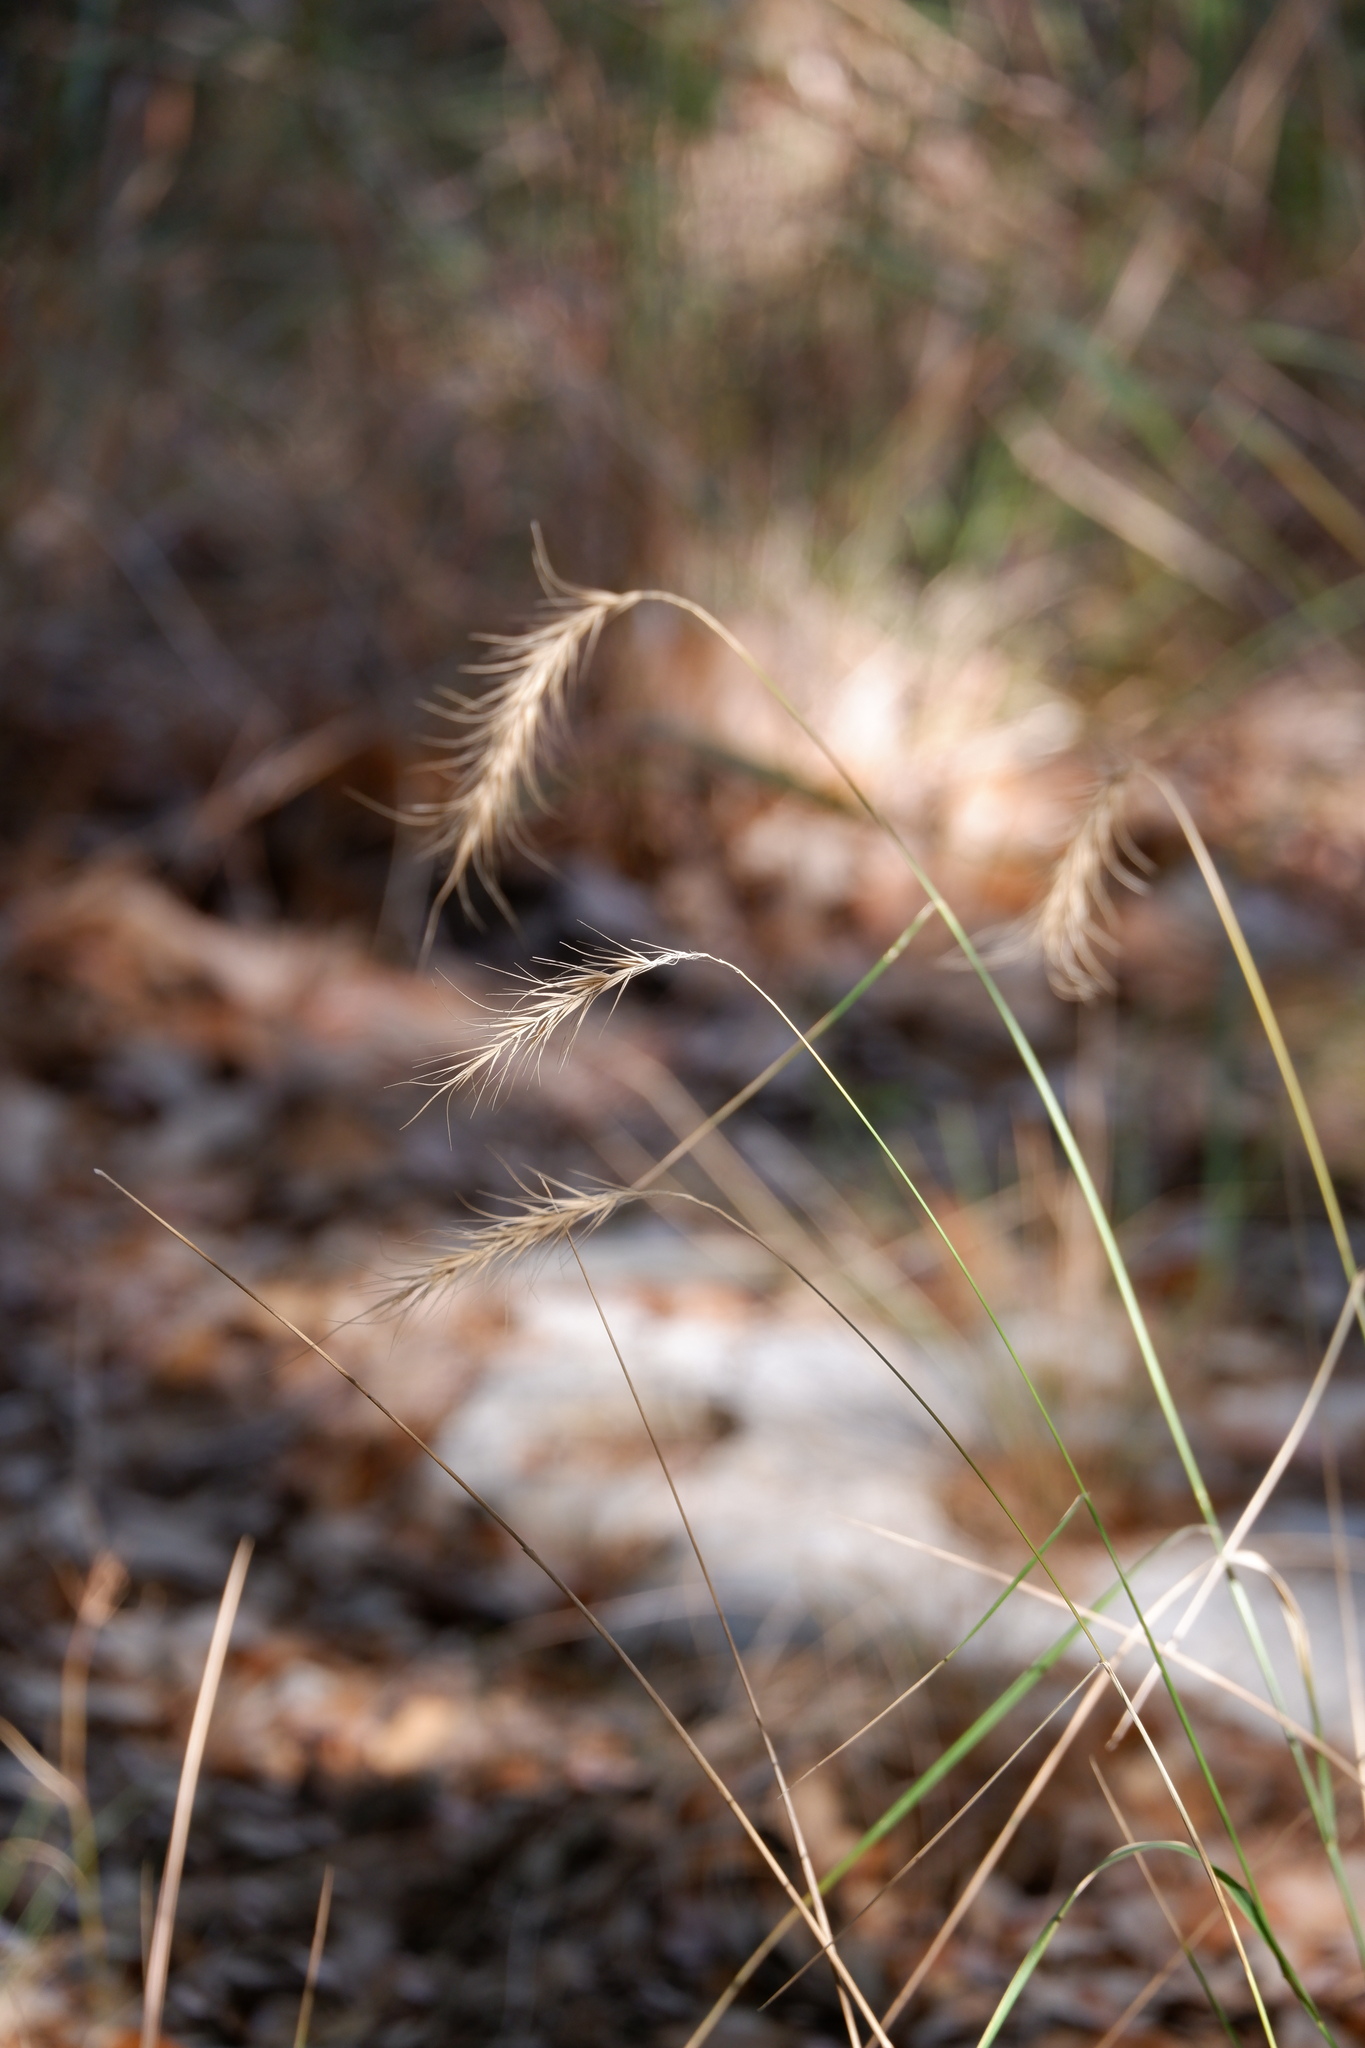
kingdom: Plantae
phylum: Tracheophyta
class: Liliopsida
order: Poales
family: Poaceae
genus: Elymus
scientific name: Elymus canadensis
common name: Canada wild rye
